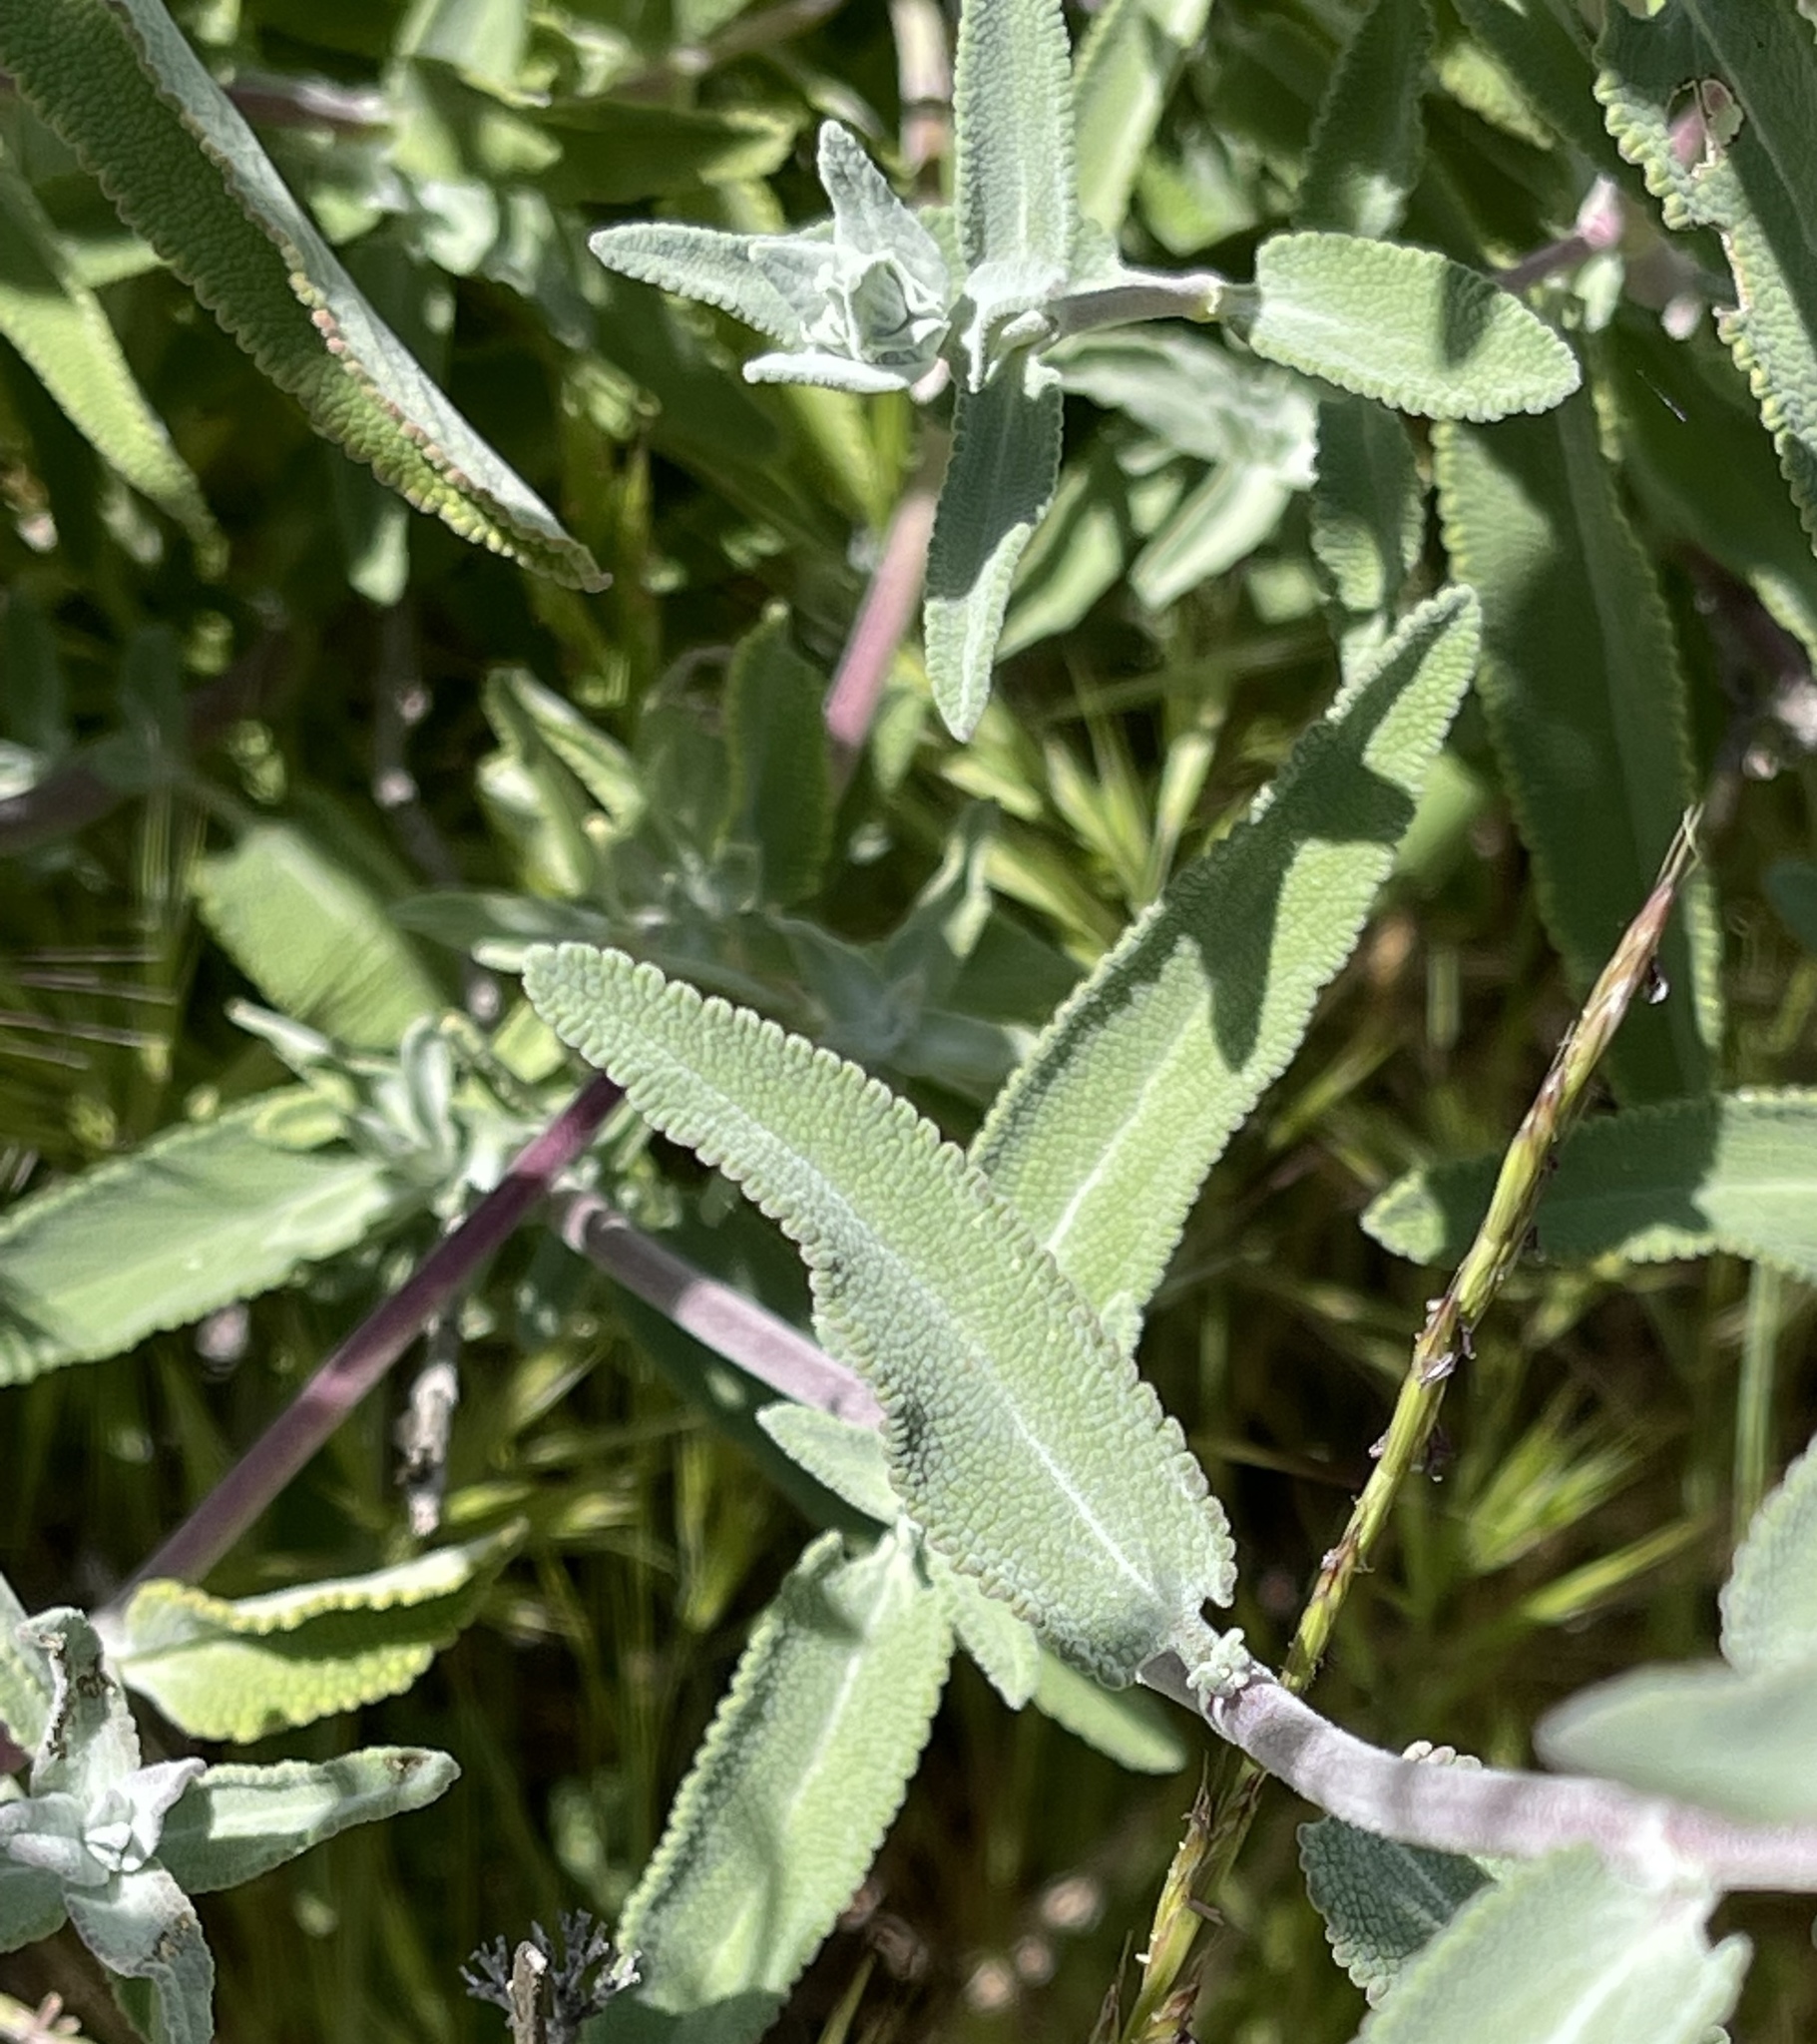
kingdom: Plantae
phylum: Tracheophyta
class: Magnoliopsida
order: Lamiales
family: Lamiaceae
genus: Salvia
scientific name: Salvia leucophylla
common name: Purple sage
